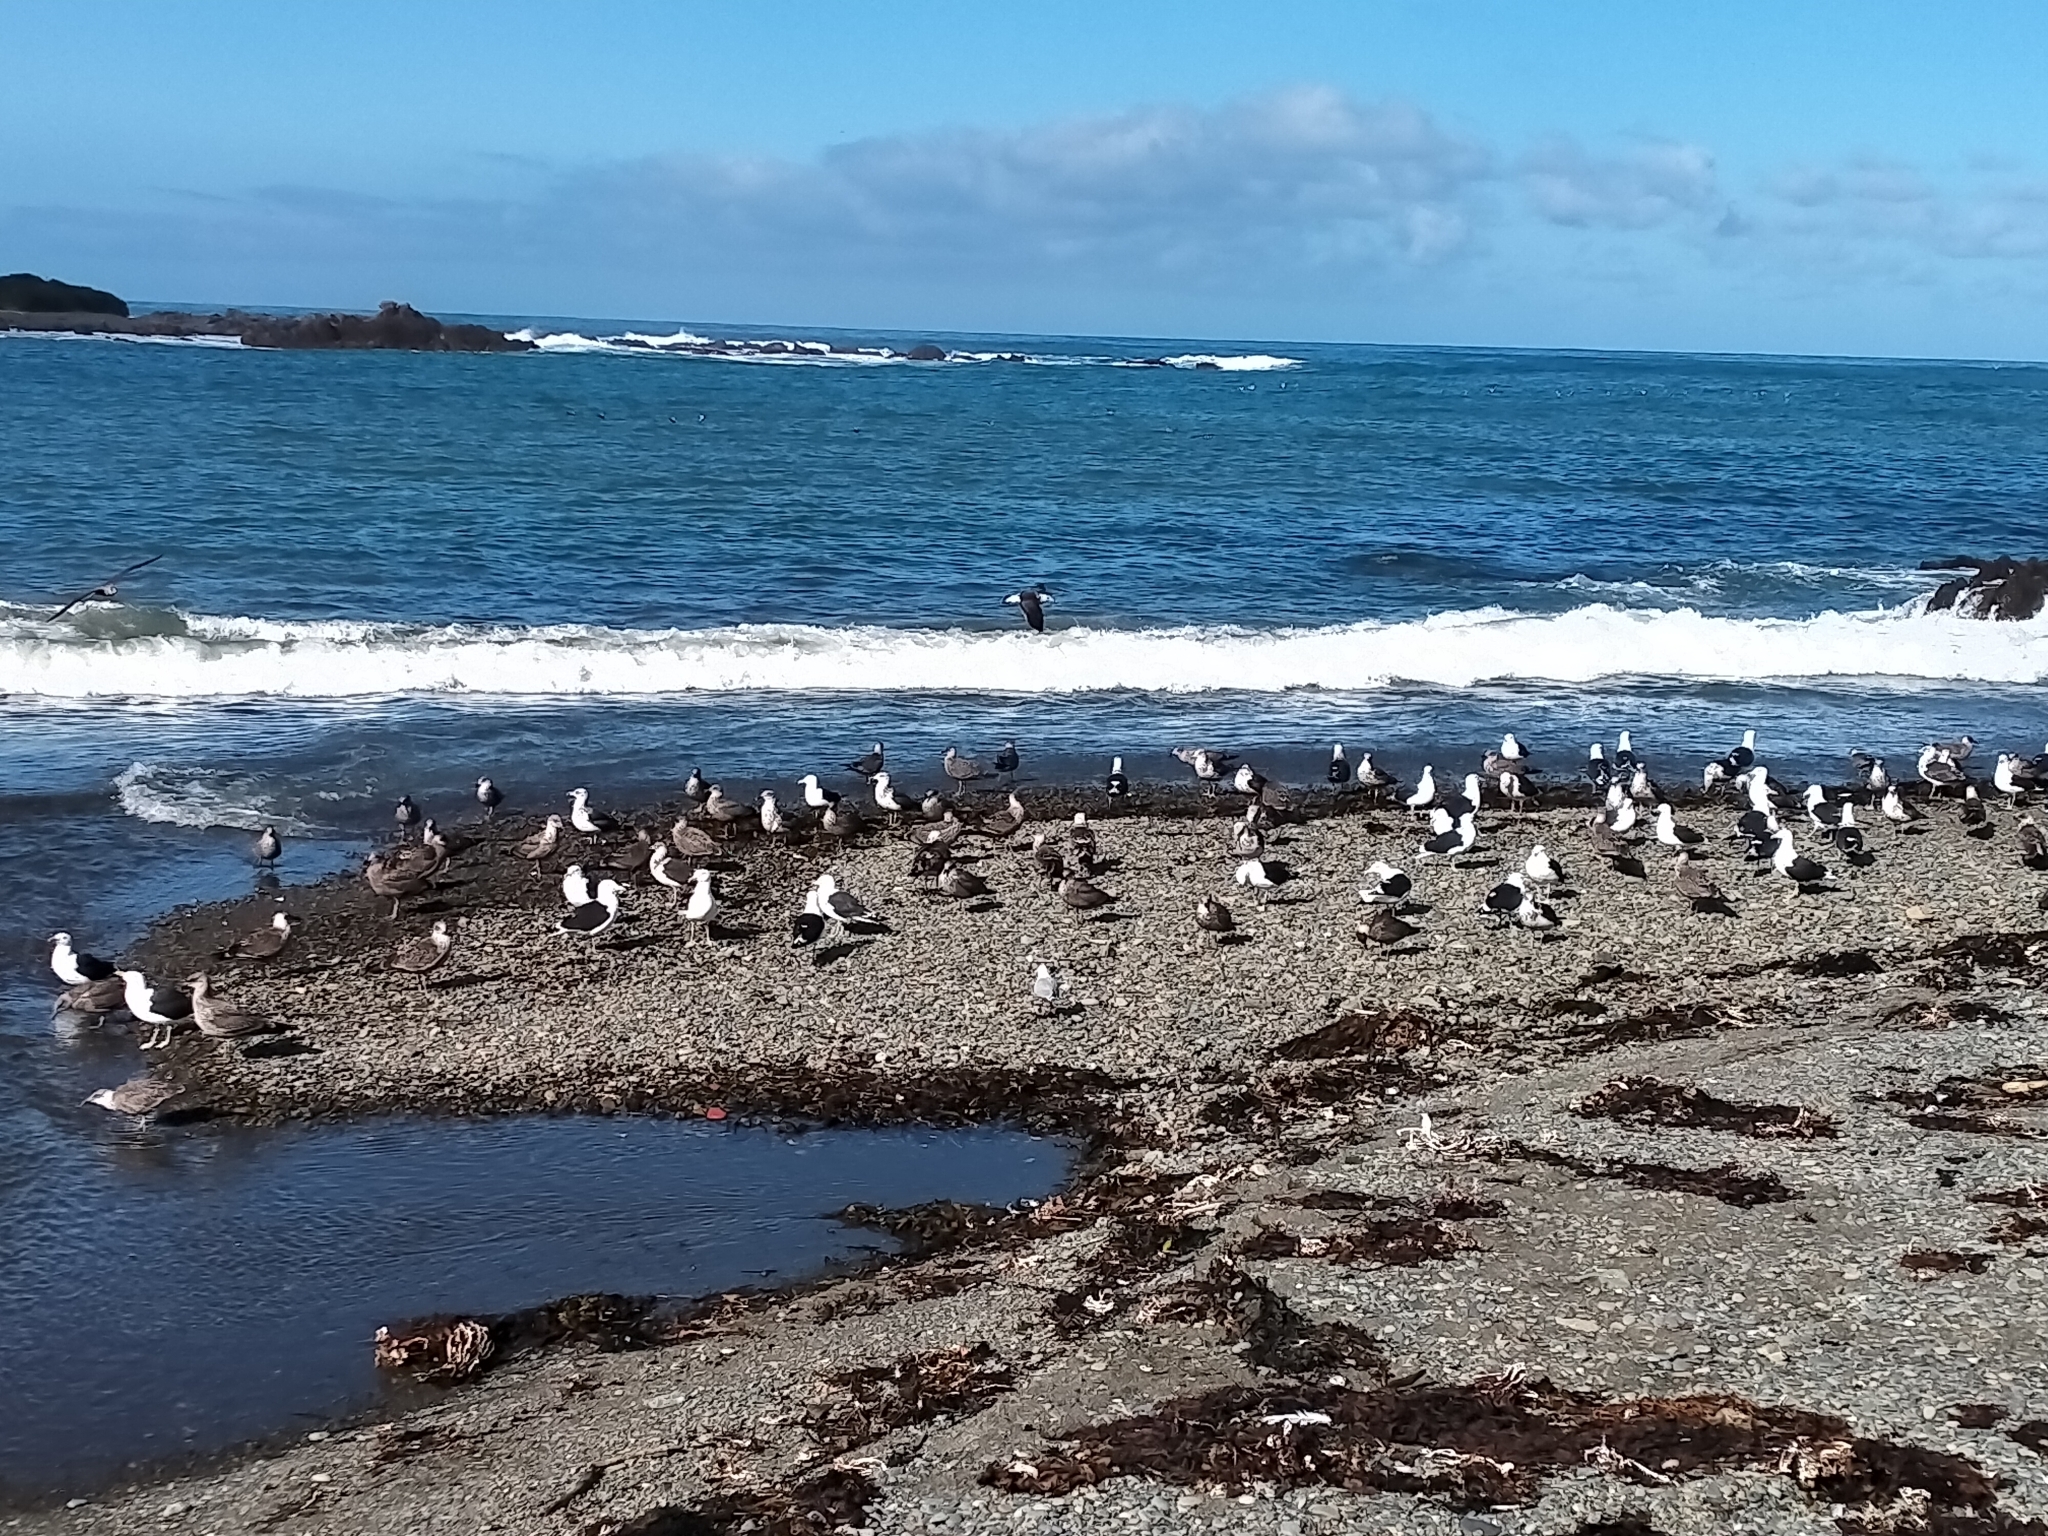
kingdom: Animalia
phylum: Chordata
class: Aves
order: Charadriiformes
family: Laridae
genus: Larus
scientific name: Larus dominicanus
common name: Kelp gull
